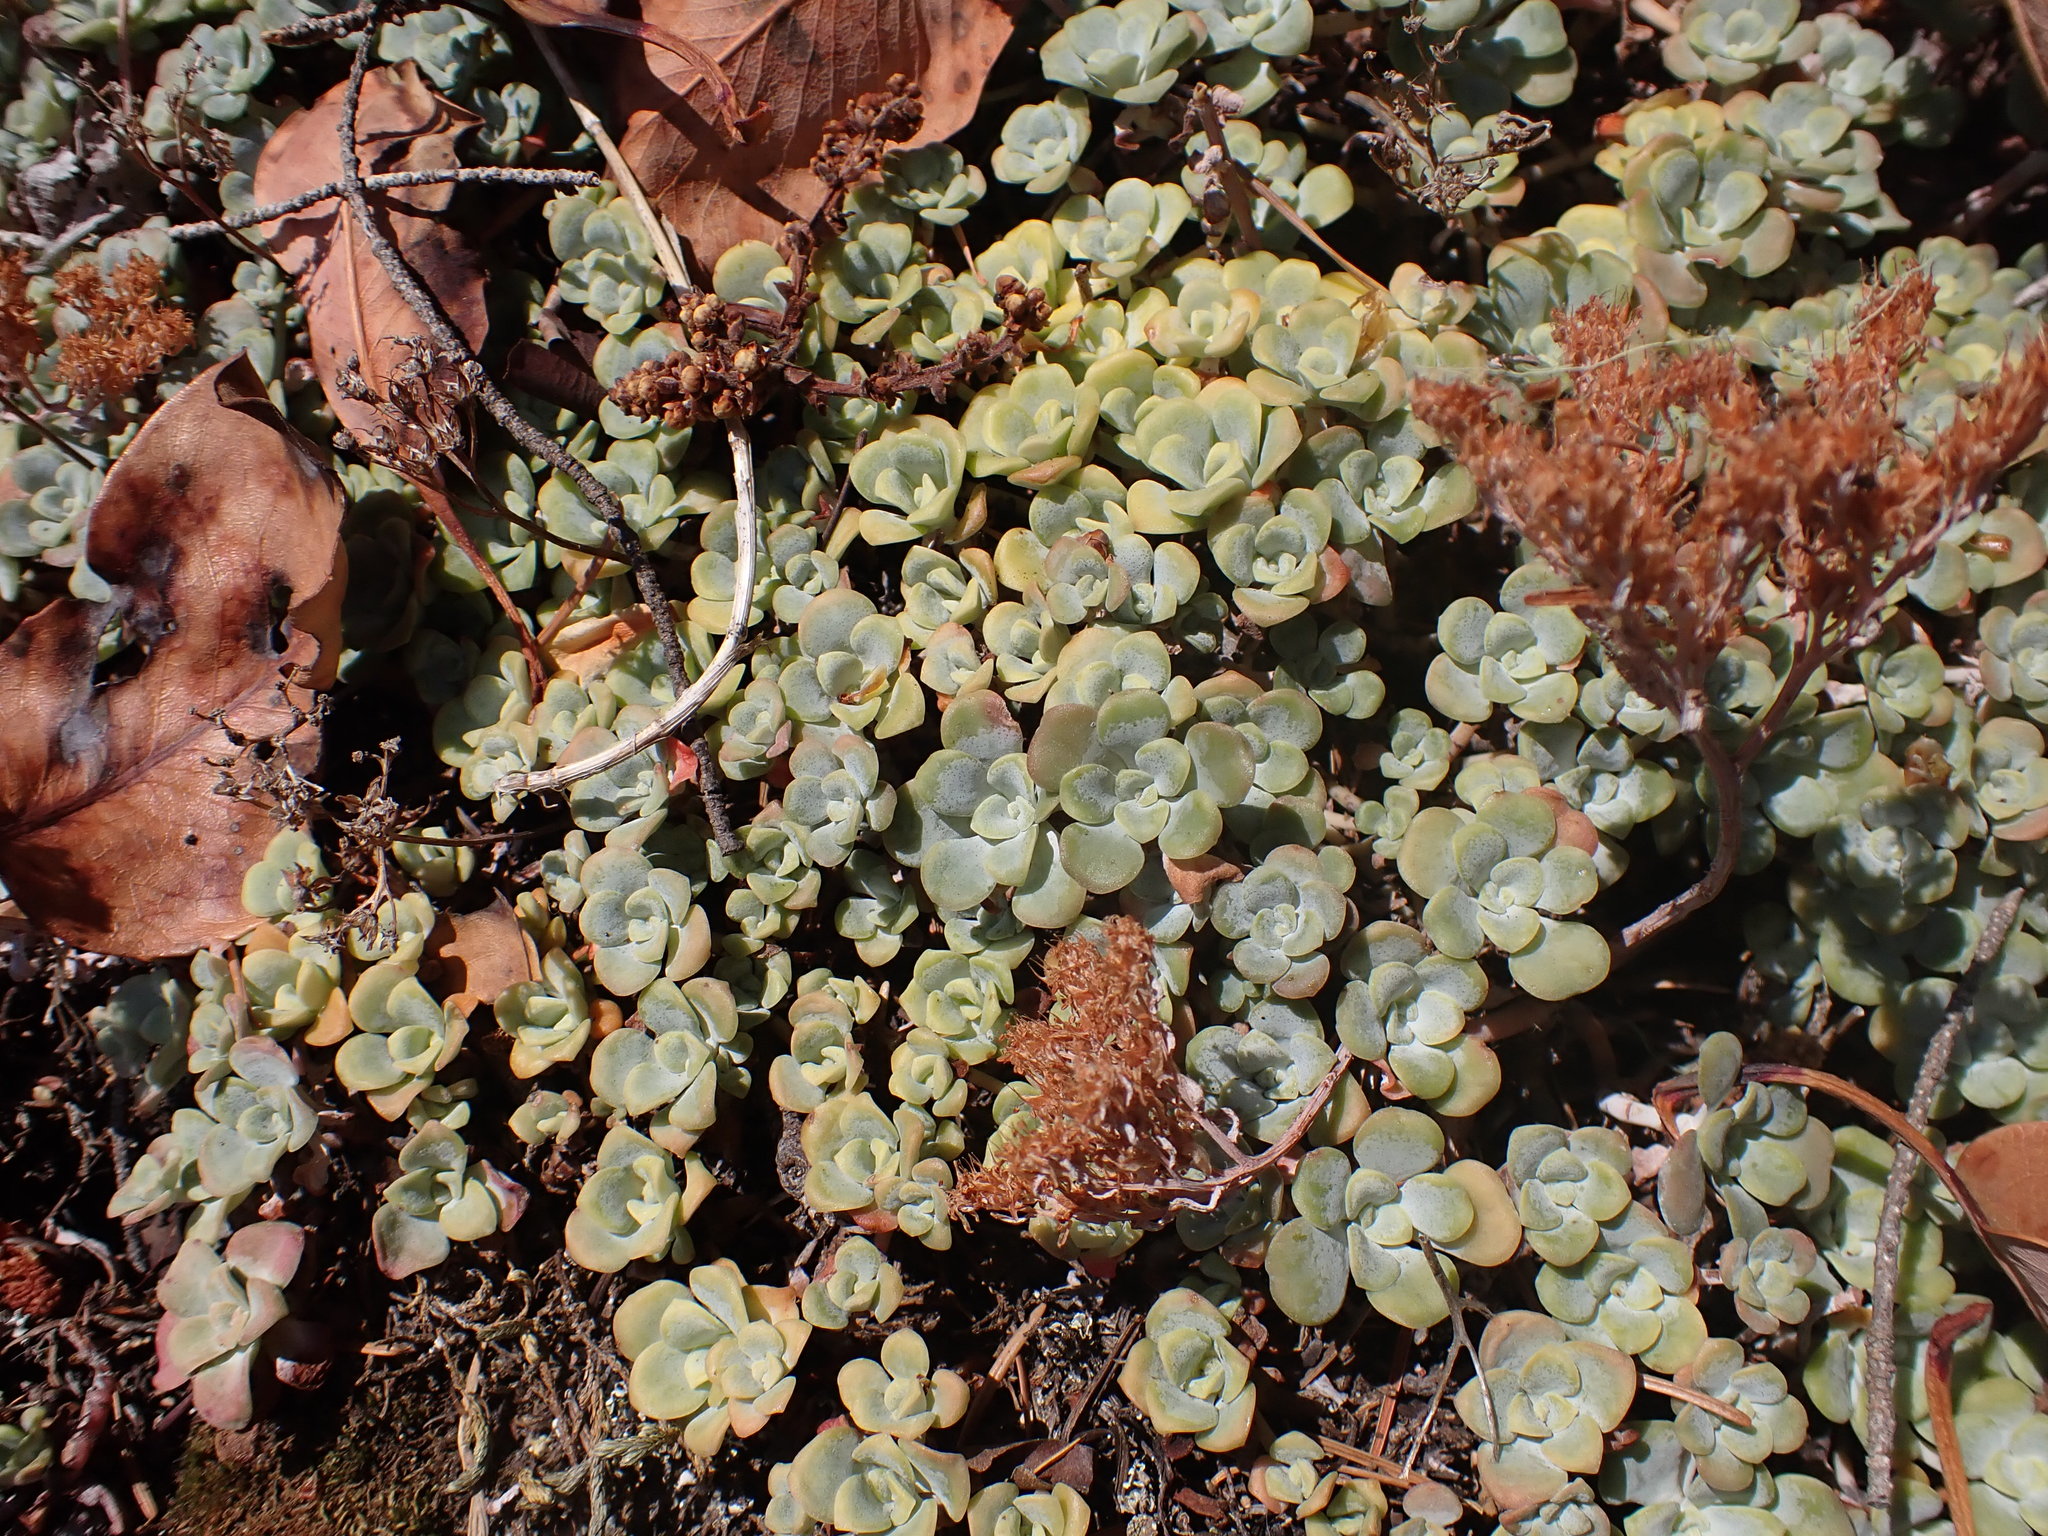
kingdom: Plantae
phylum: Tracheophyta
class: Magnoliopsida
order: Saxifragales
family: Crassulaceae
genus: Sedum
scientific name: Sedum spathulifolium
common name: Colorado stonecrop
